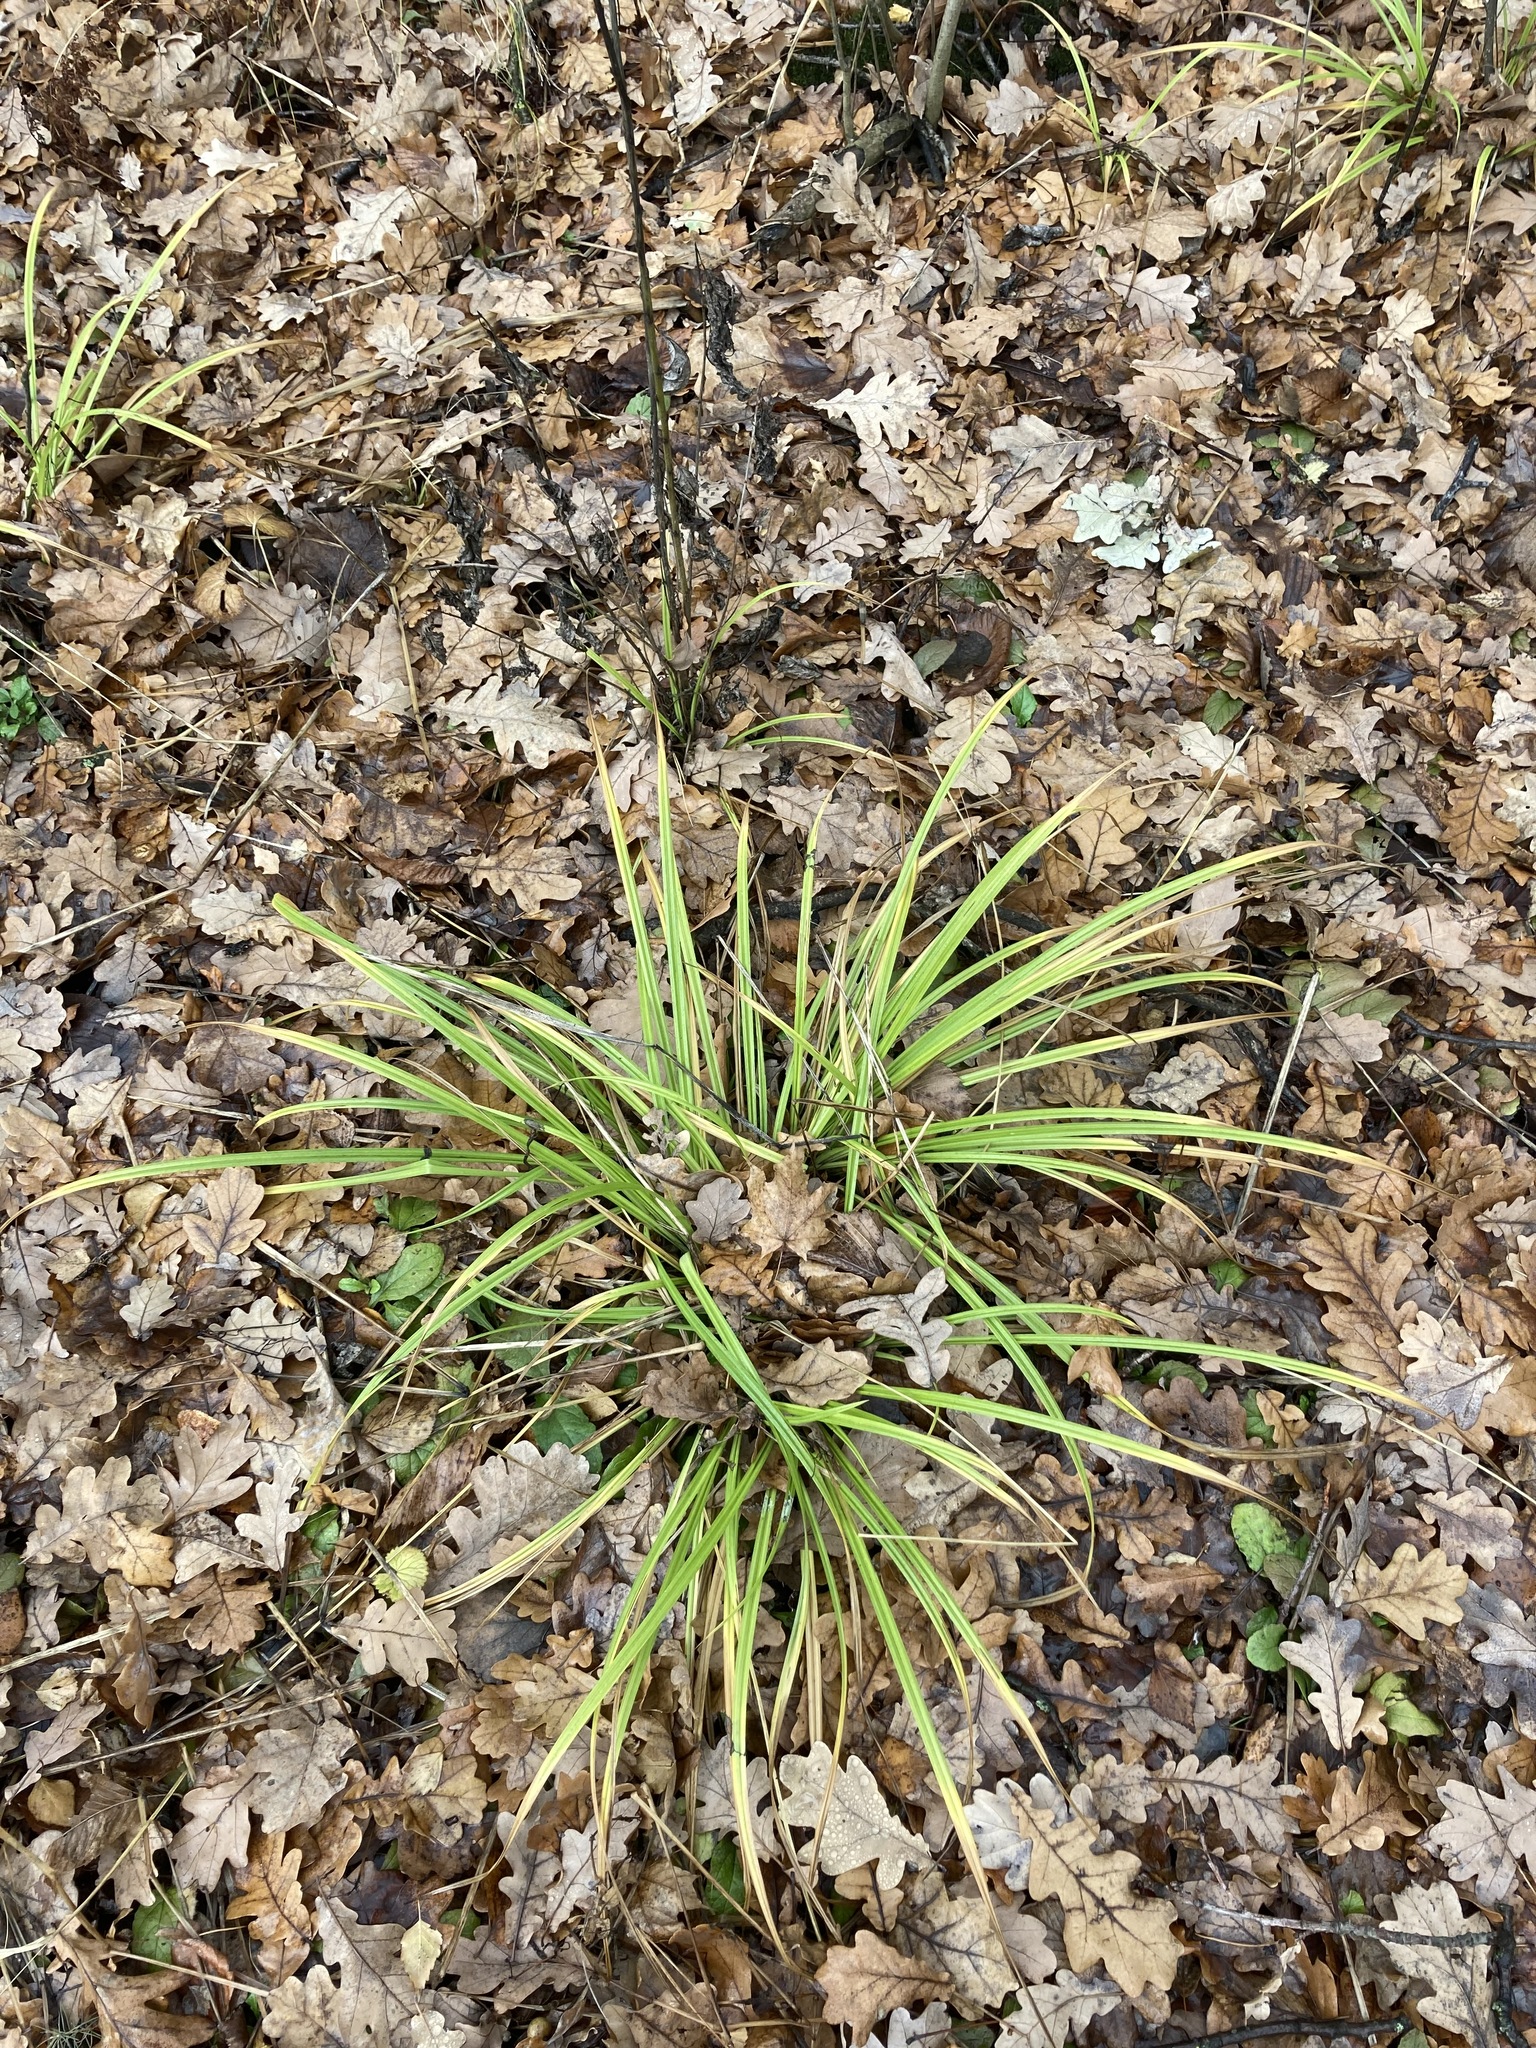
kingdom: Plantae
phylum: Tracheophyta
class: Liliopsida
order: Poales
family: Cyperaceae
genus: Carex
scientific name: Carex sylvatica
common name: Wood-sedge
